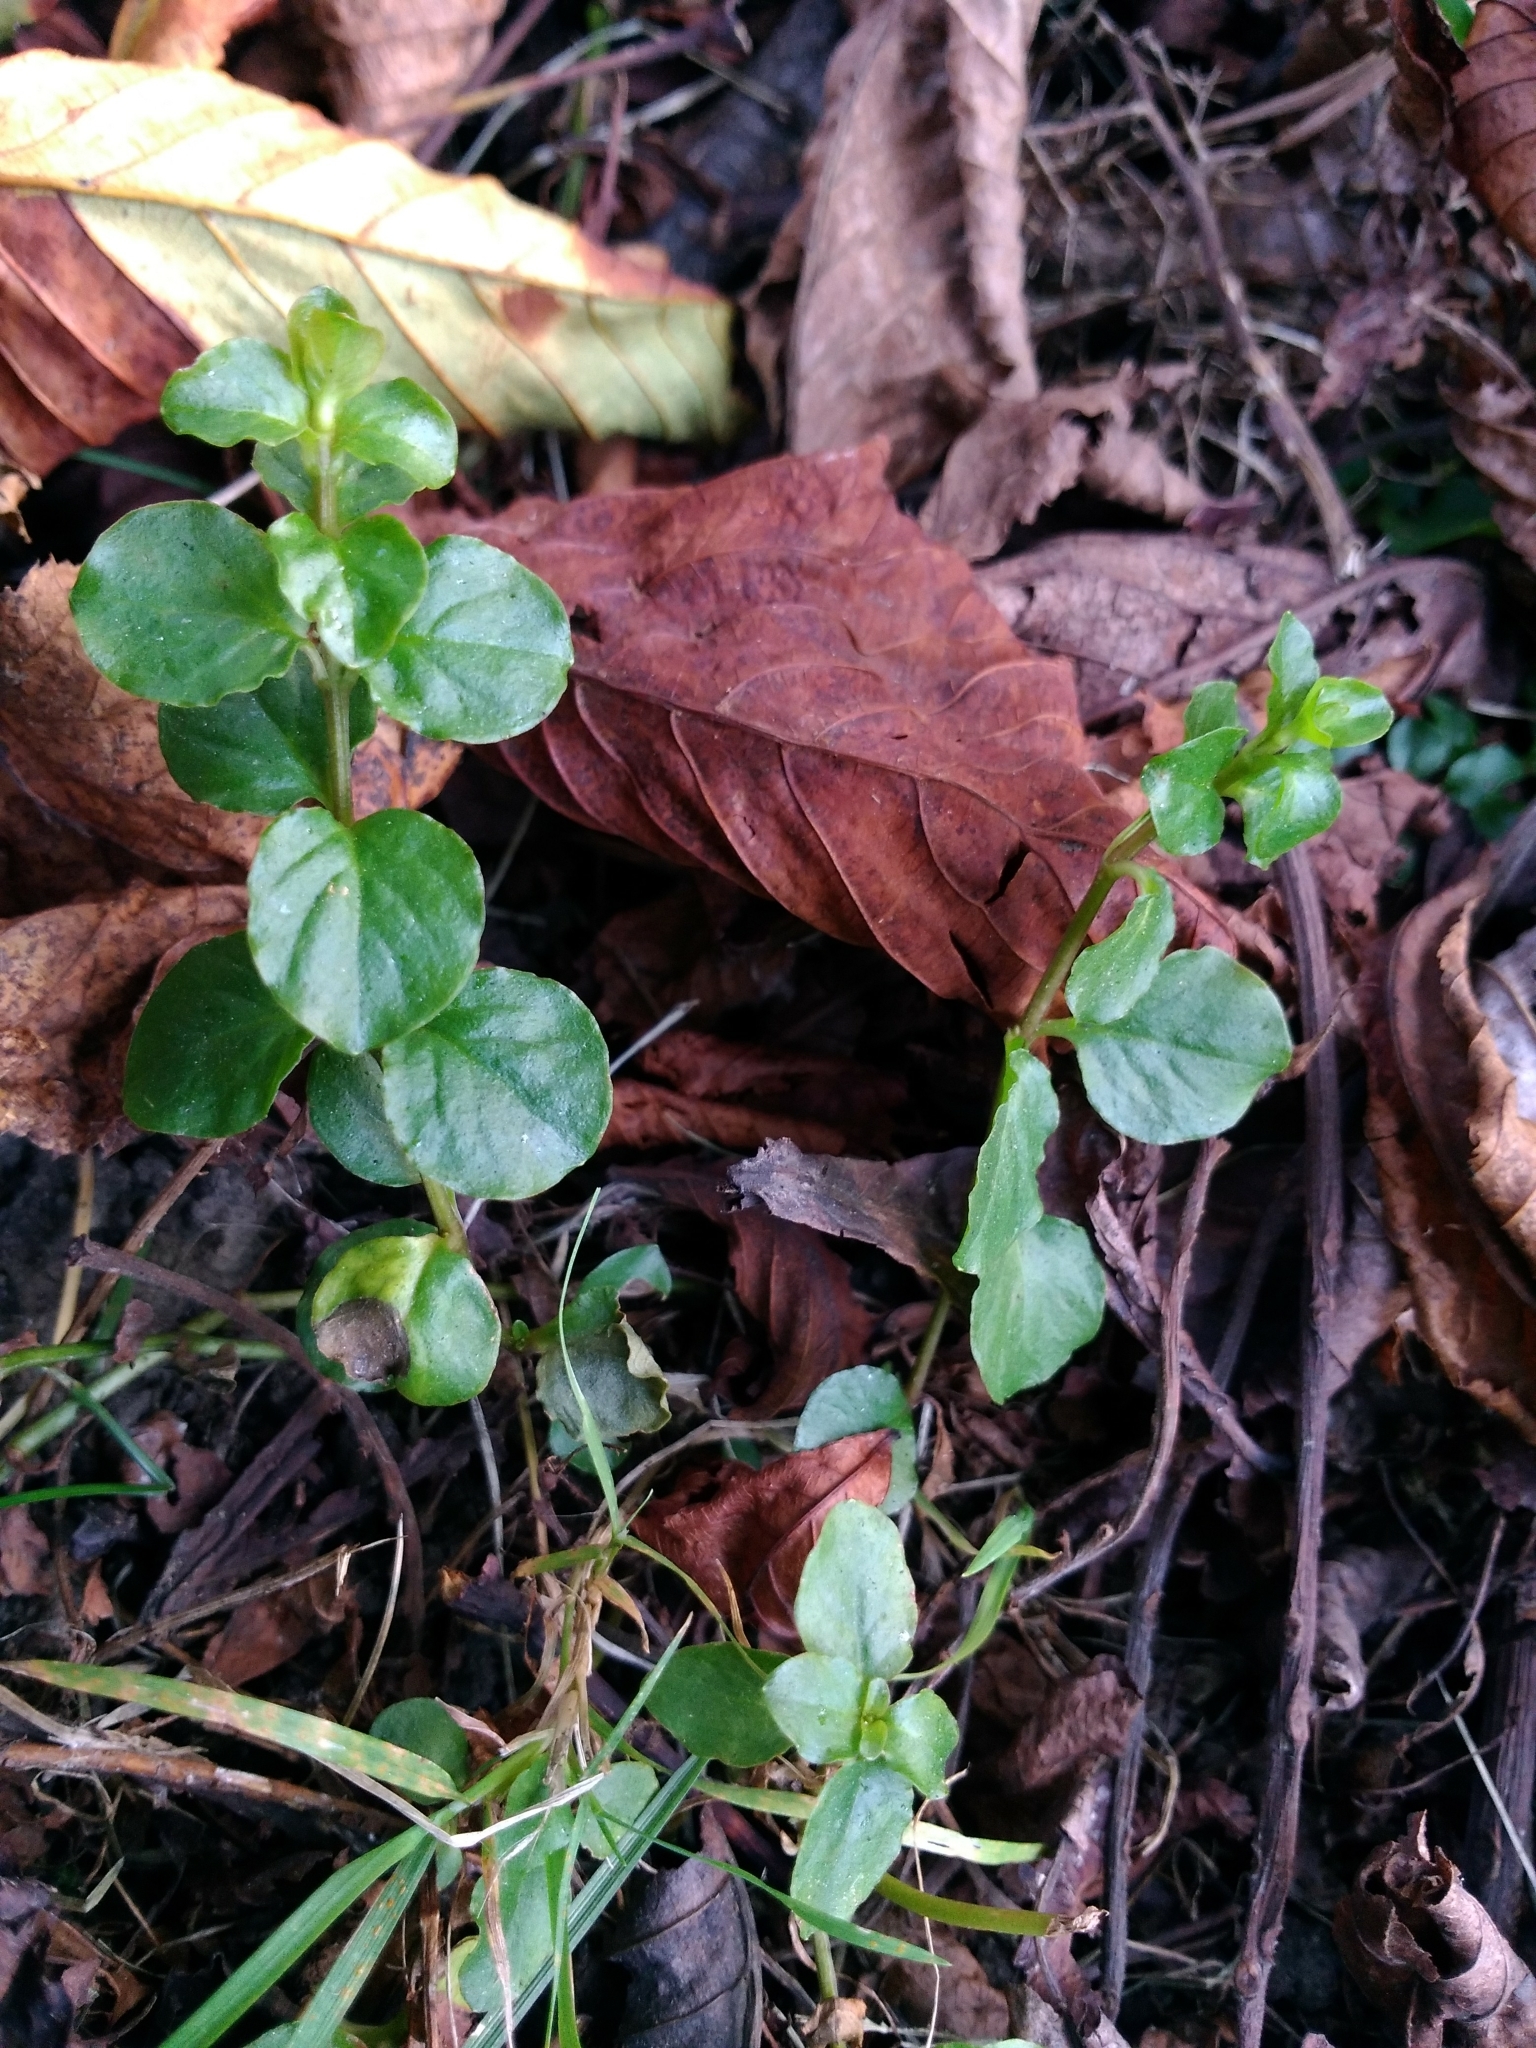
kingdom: Plantae
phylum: Tracheophyta
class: Magnoliopsida
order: Ericales
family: Primulaceae
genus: Lysimachia
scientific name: Lysimachia nummularia
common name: Moneywort
